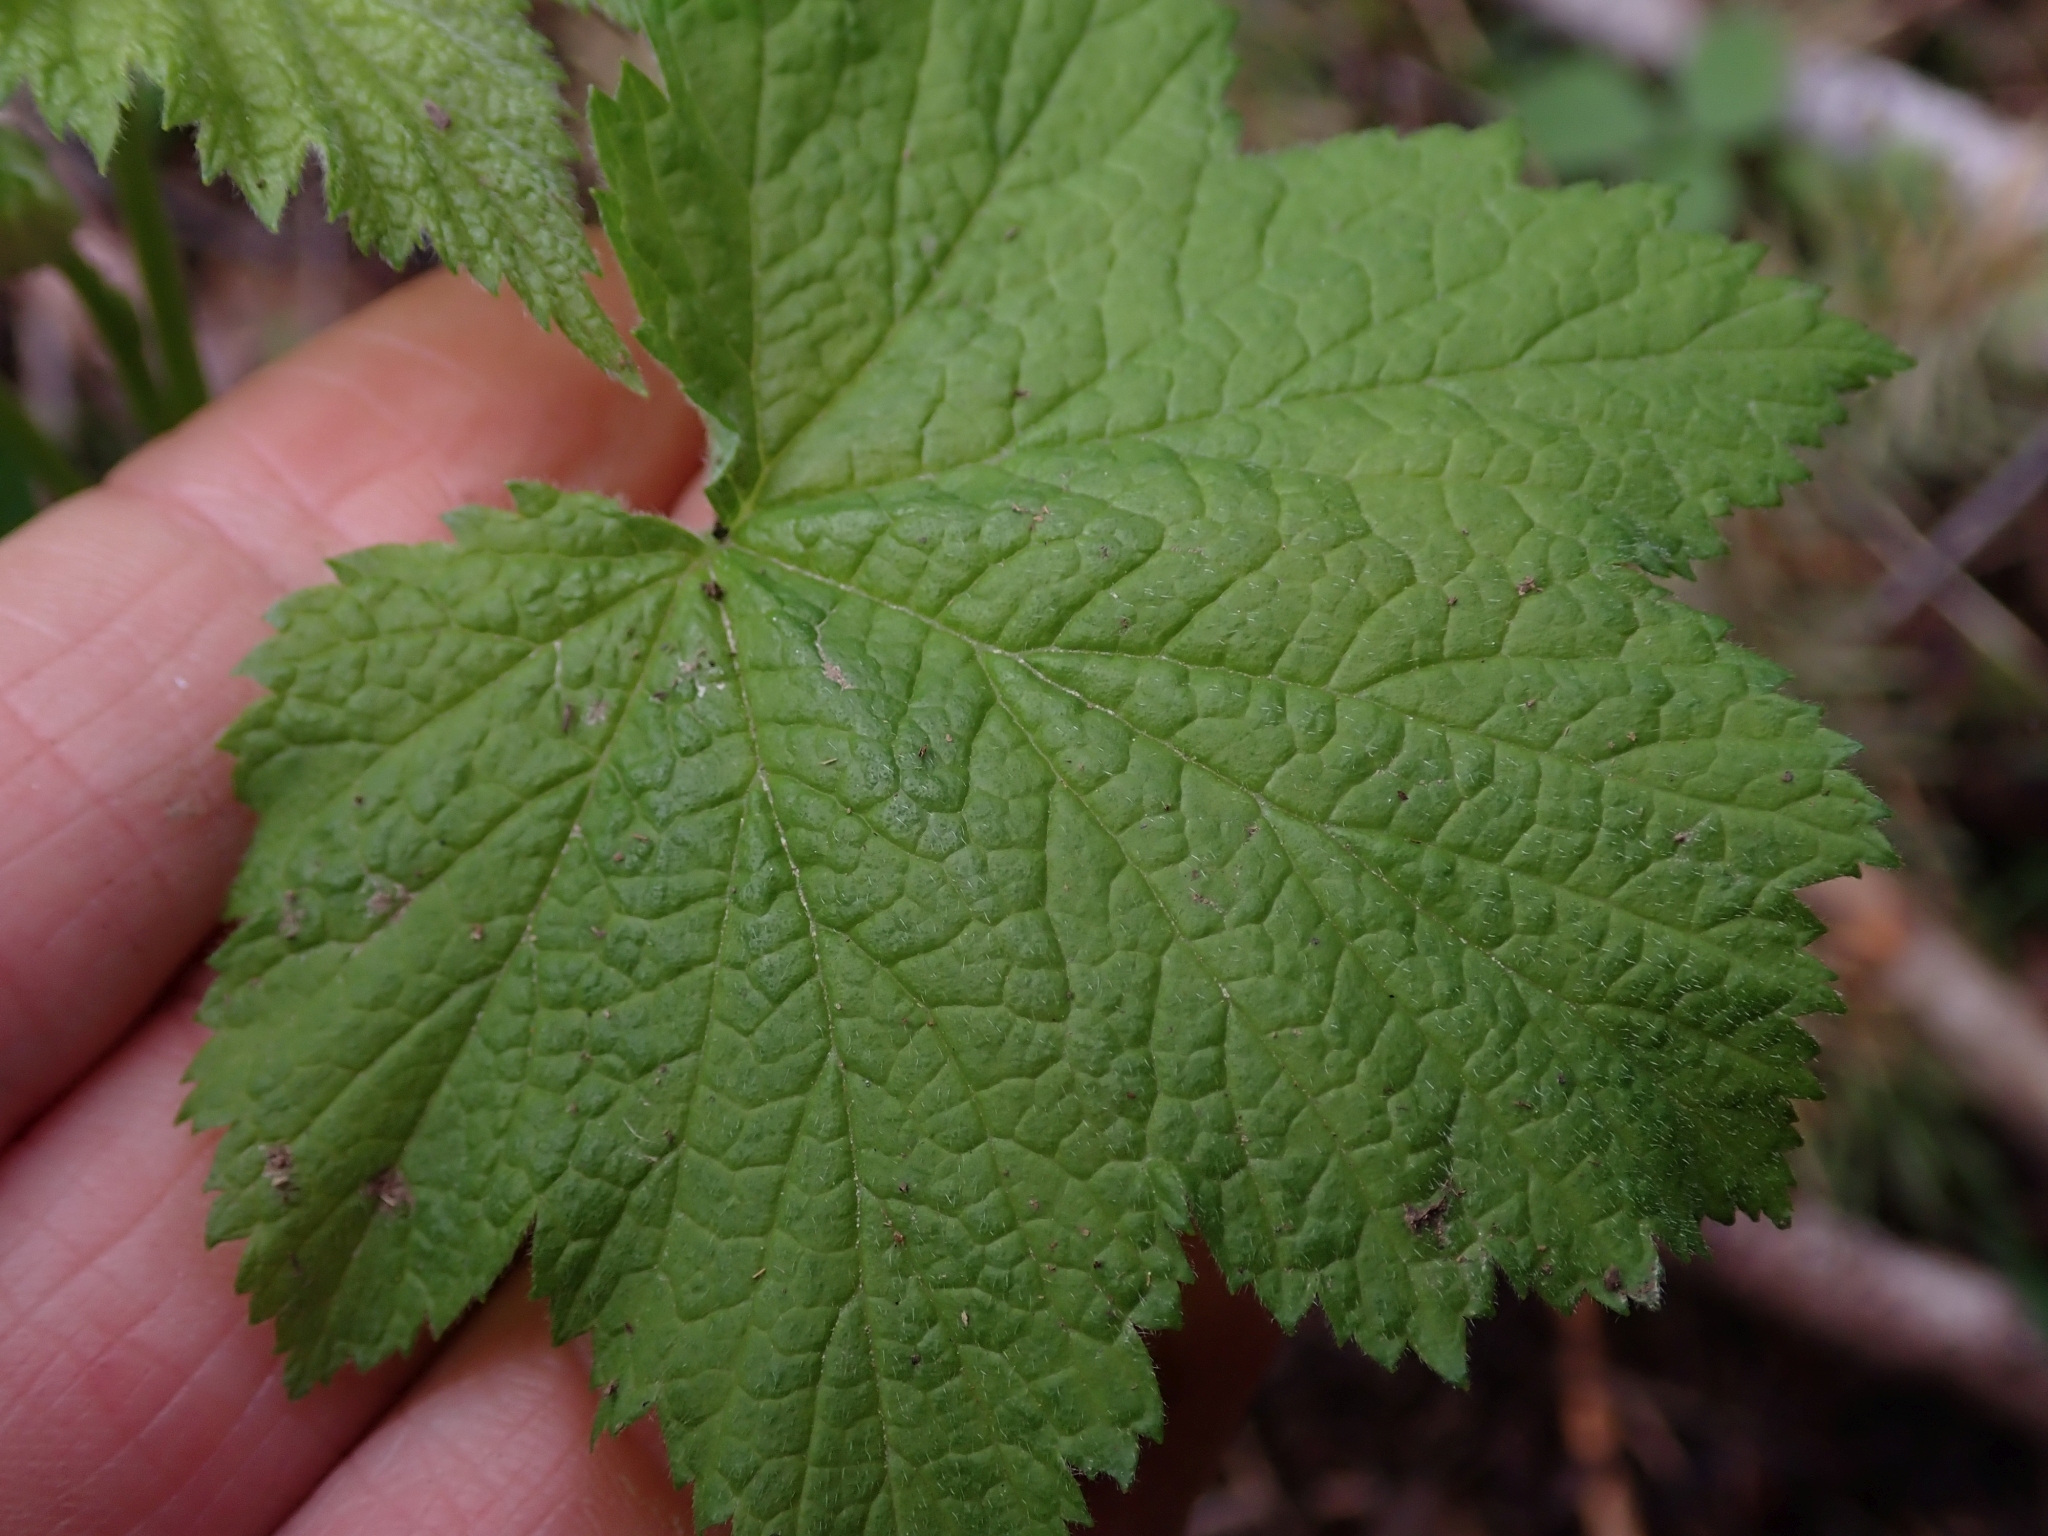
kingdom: Plantae
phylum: Tracheophyta
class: Magnoliopsida
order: Rosales
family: Rosaceae
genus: Rubus
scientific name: Rubus parviflorus
